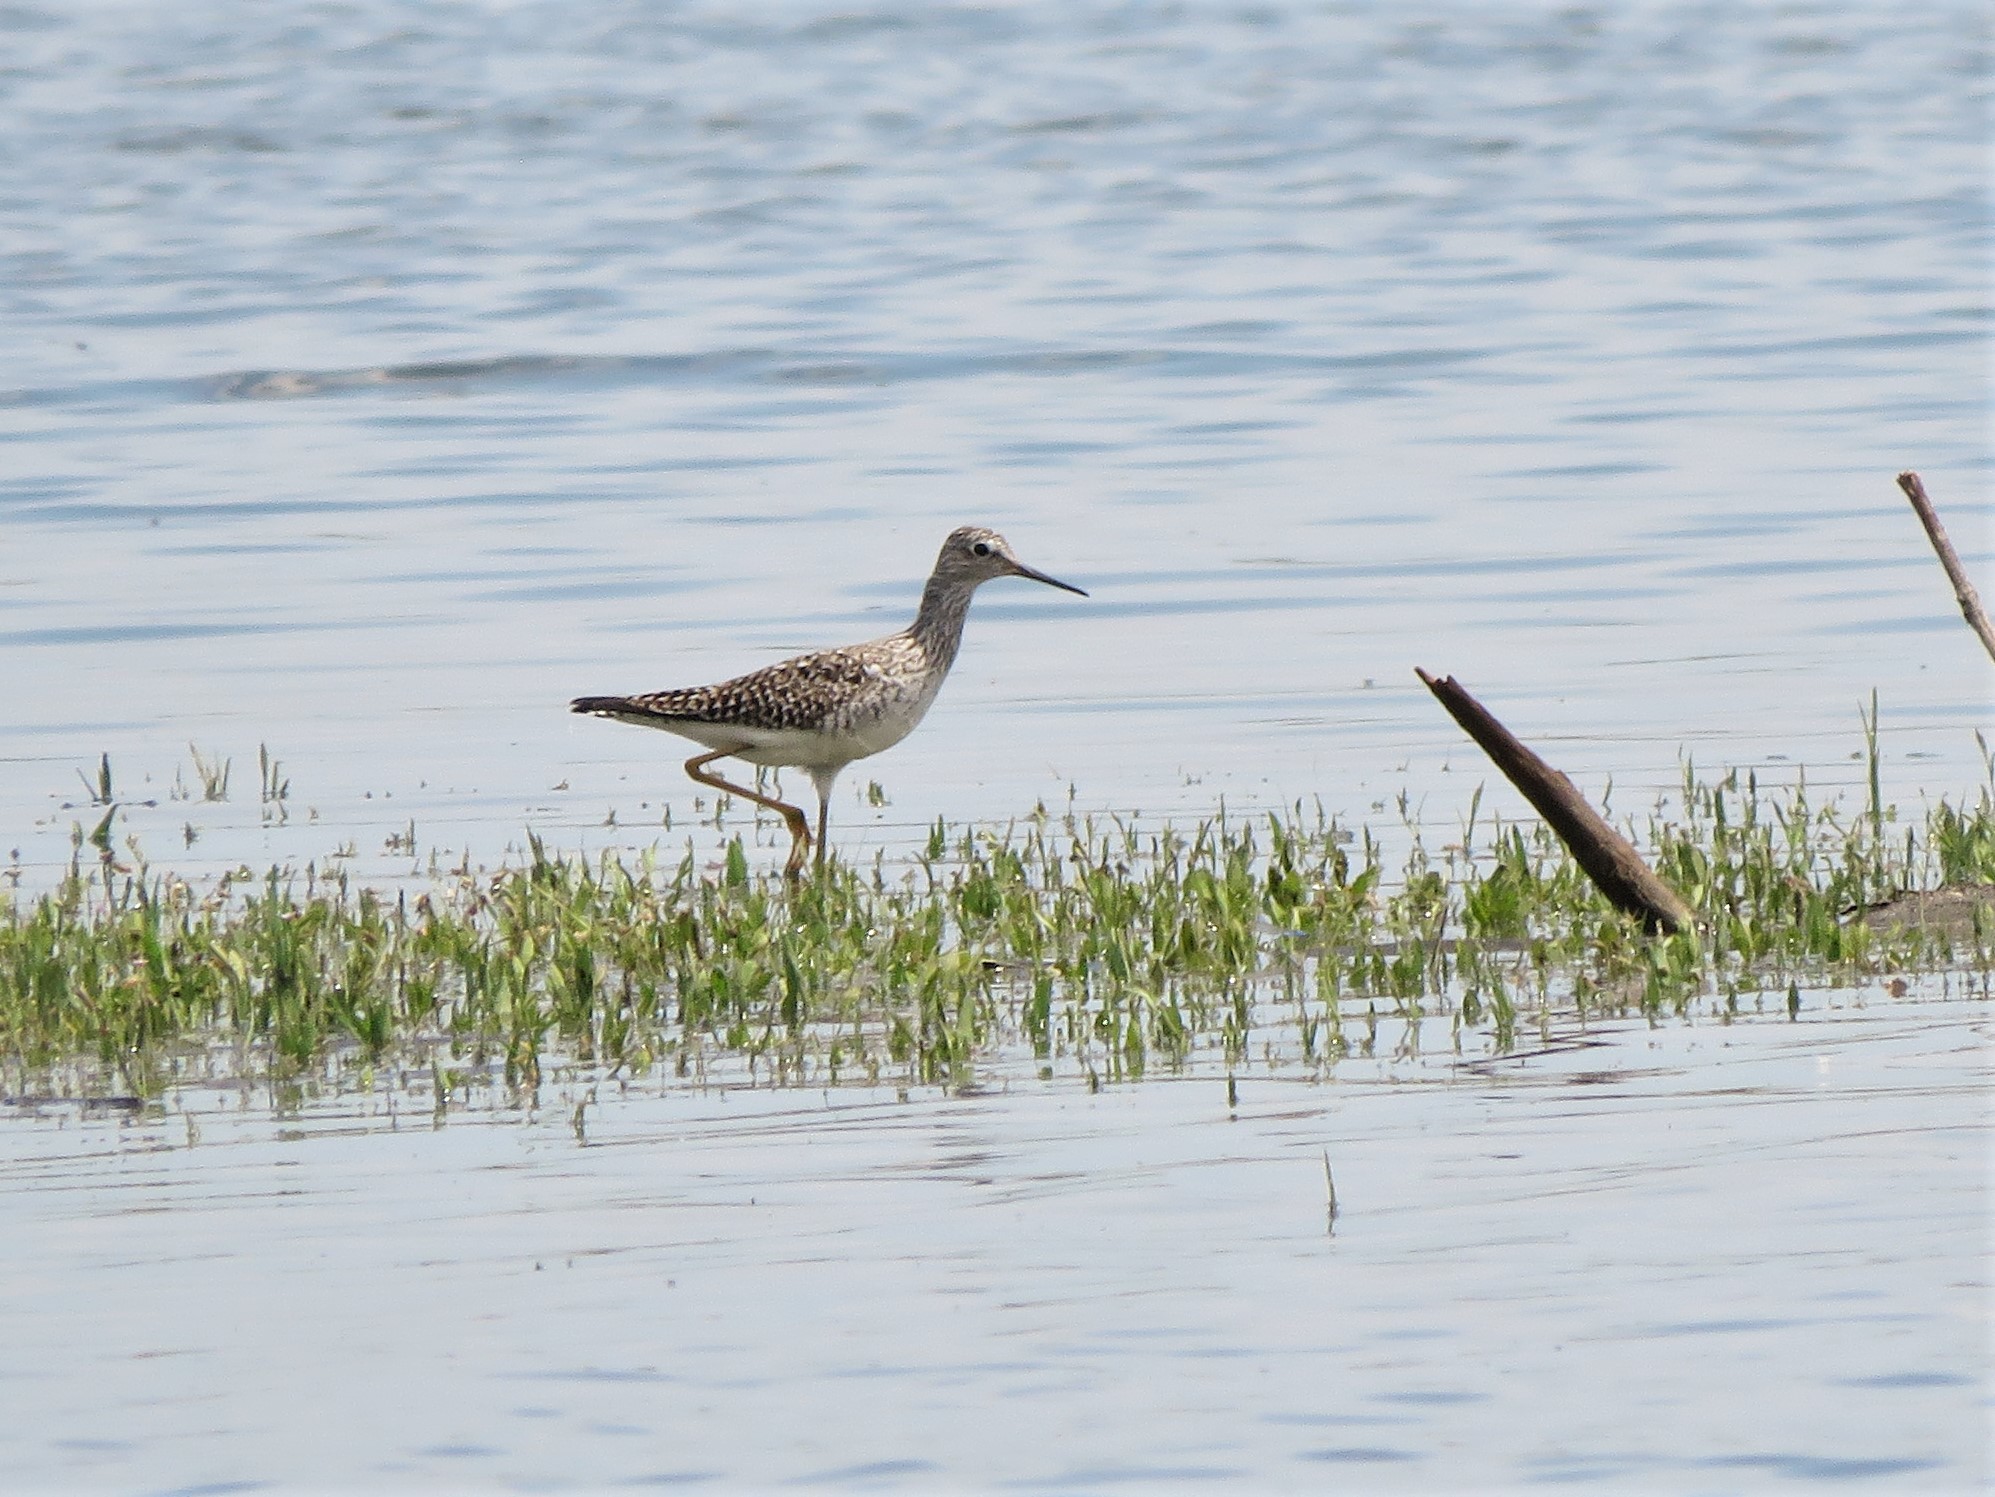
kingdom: Animalia
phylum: Chordata
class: Aves
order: Charadriiformes
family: Scolopacidae
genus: Tringa
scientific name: Tringa melanoleuca
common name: Greater yellowlegs
